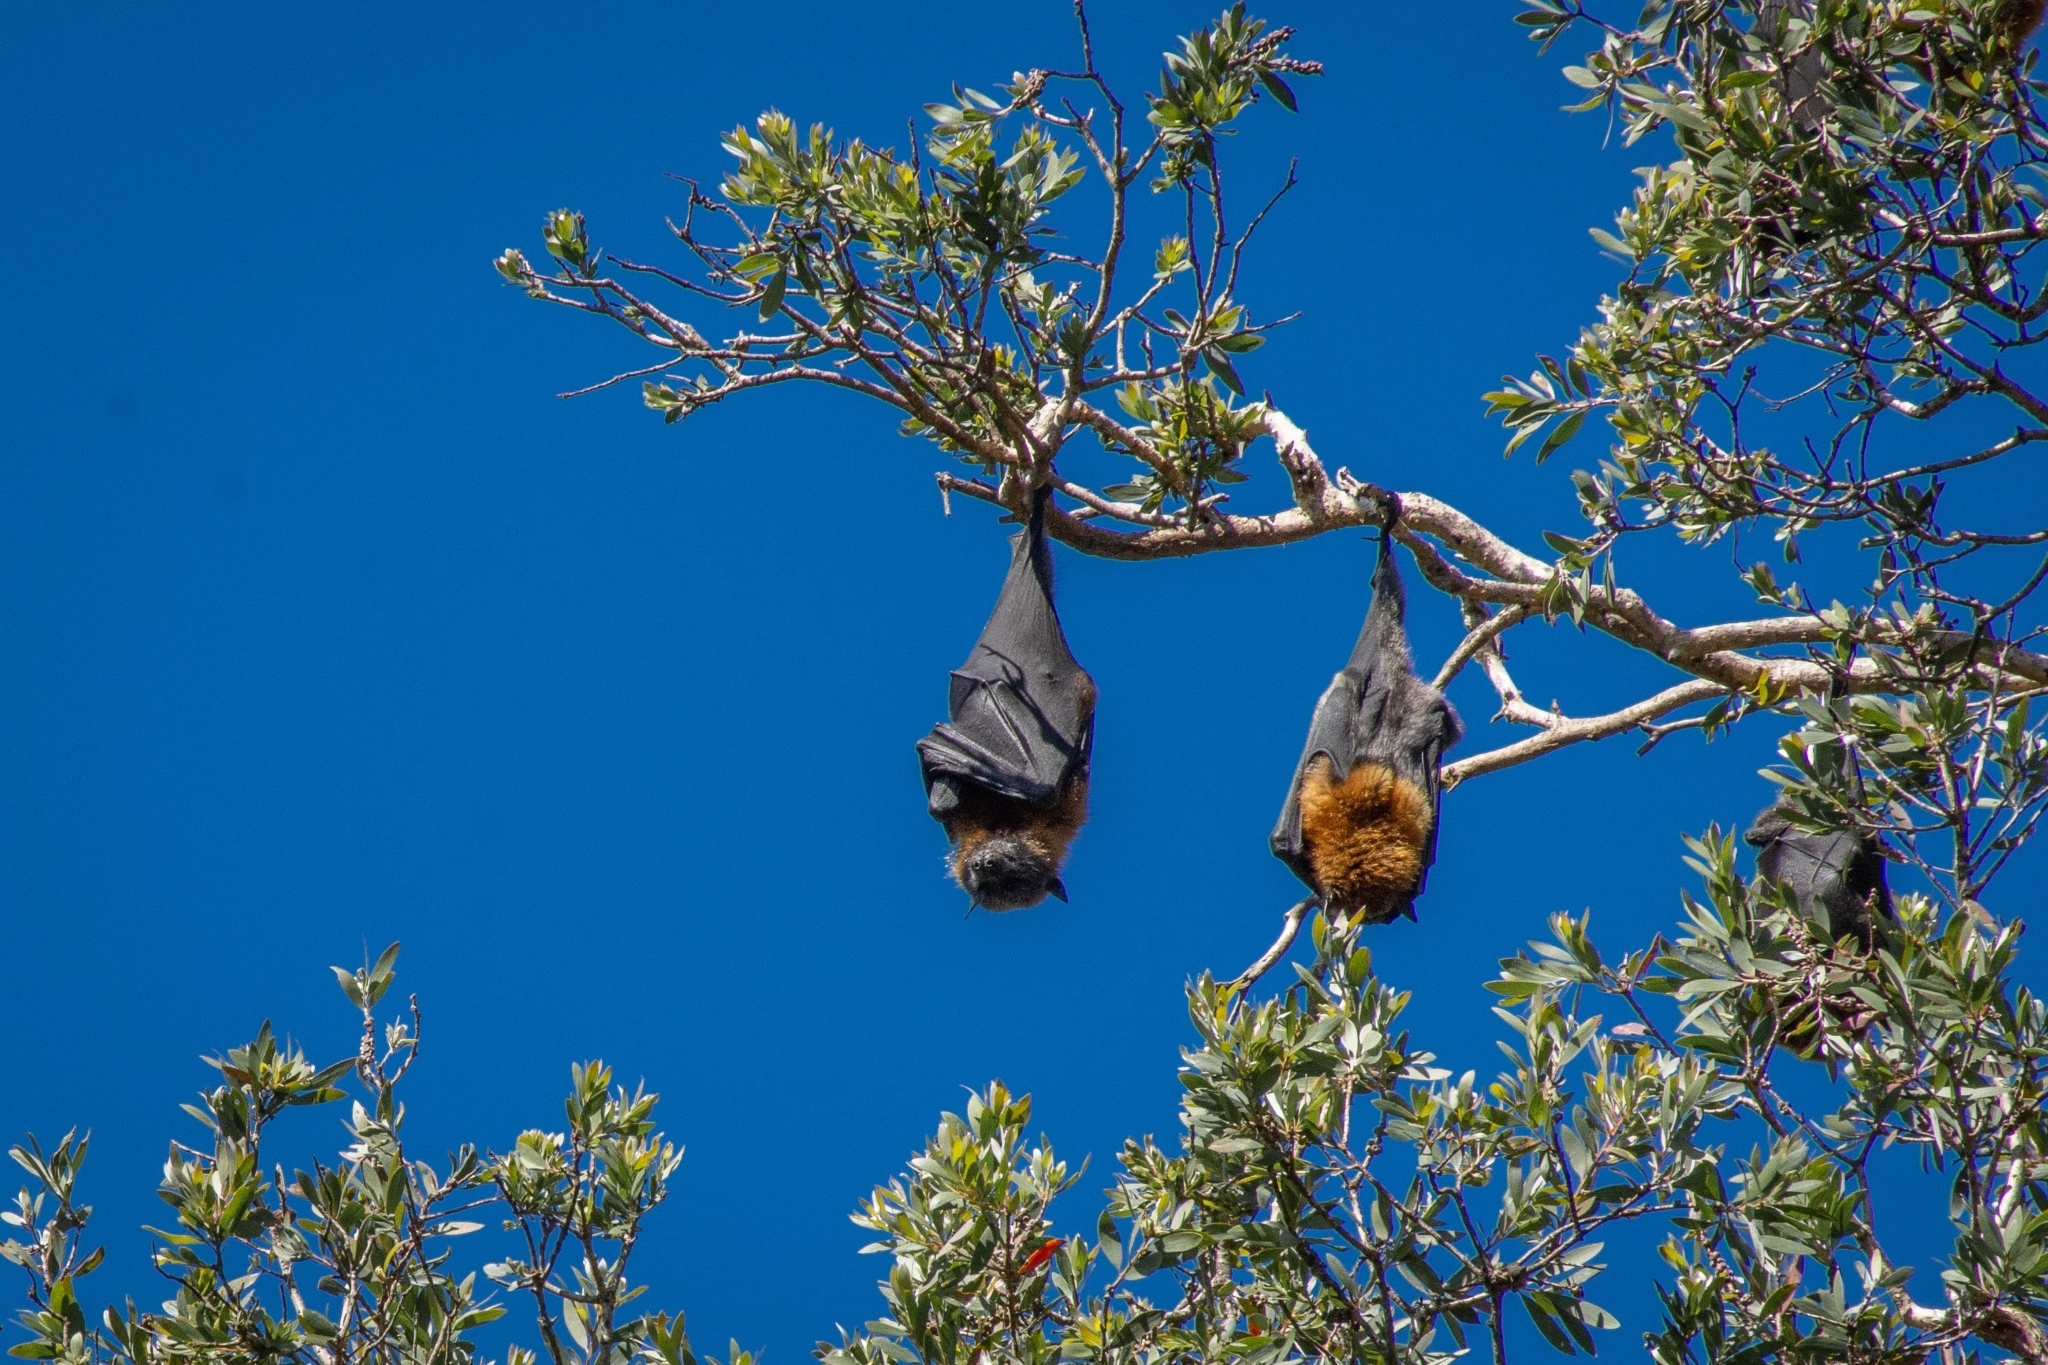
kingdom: Animalia
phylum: Chordata
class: Mammalia
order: Chiroptera
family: Pteropodidae
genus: Pteropus
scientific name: Pteropus poliocephalus
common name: Gray-headed flying fox
